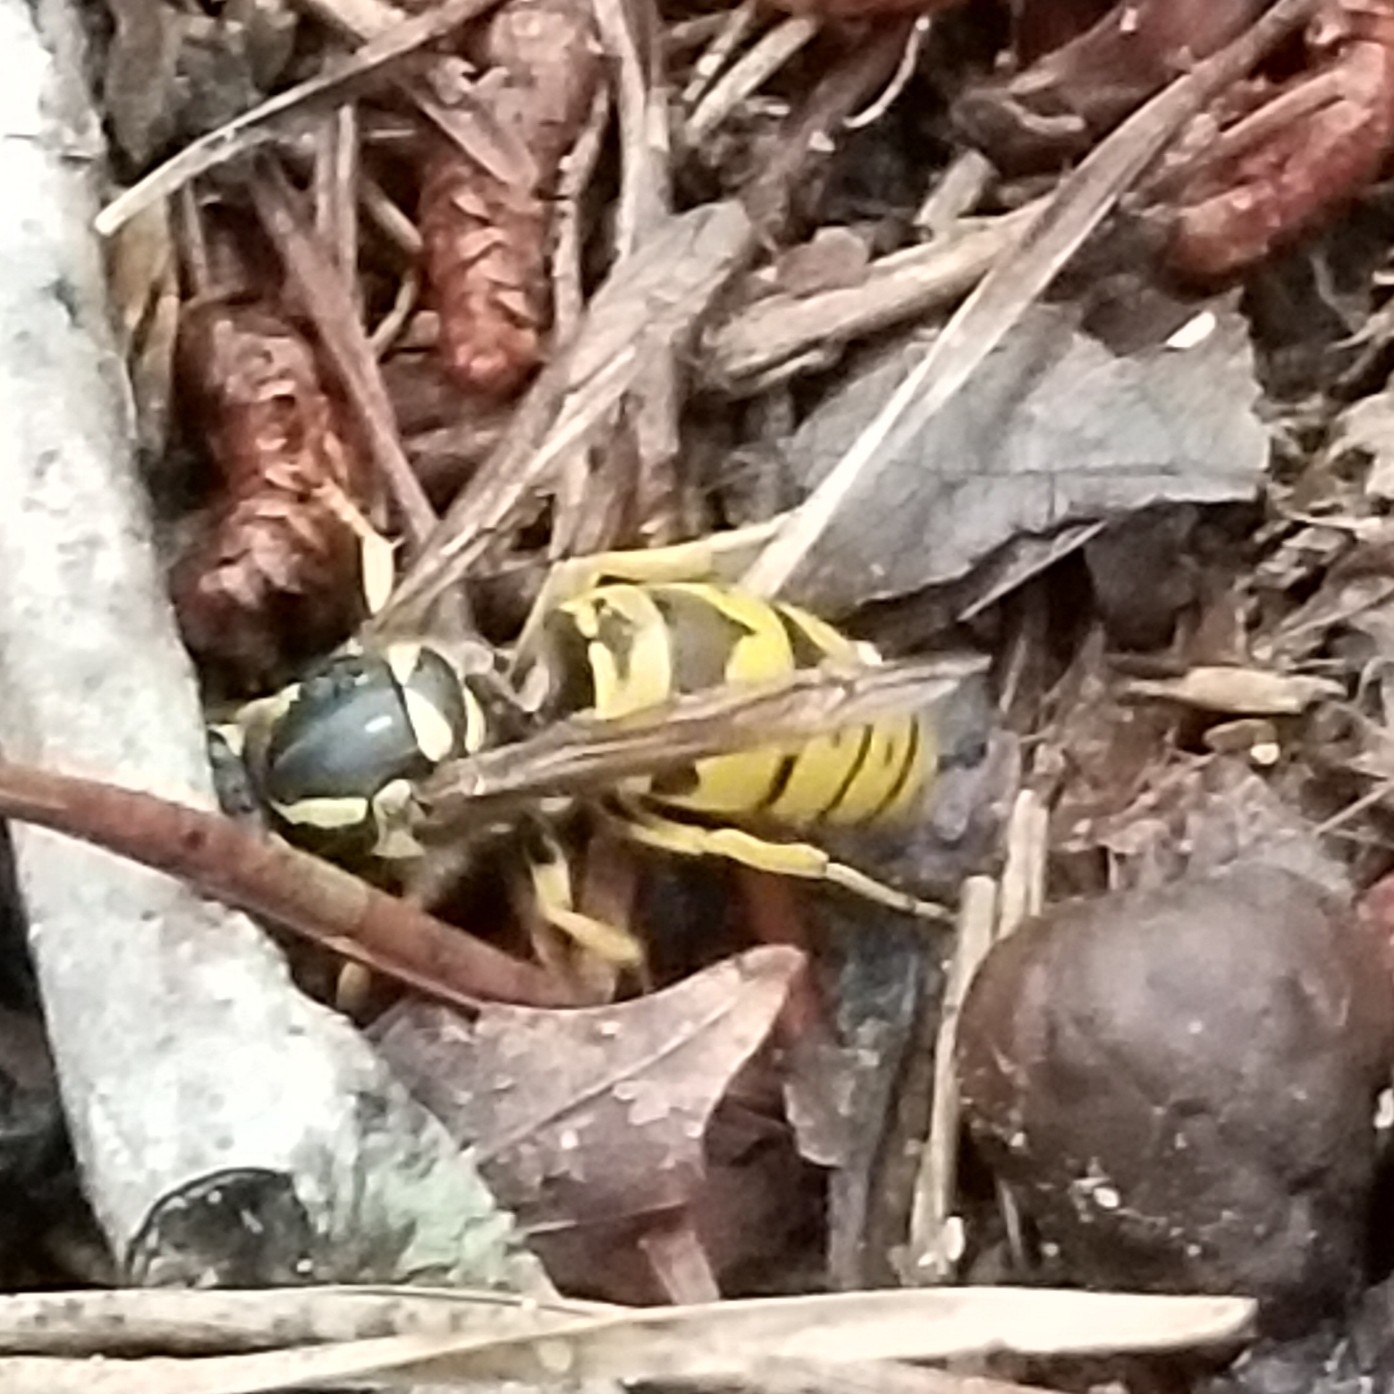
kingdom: Animalia
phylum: Arthropoda
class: Insecta
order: Hymenoptera
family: Vespidae
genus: Vespula
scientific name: Vespula maculifrons
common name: Eastern yellowjacket
